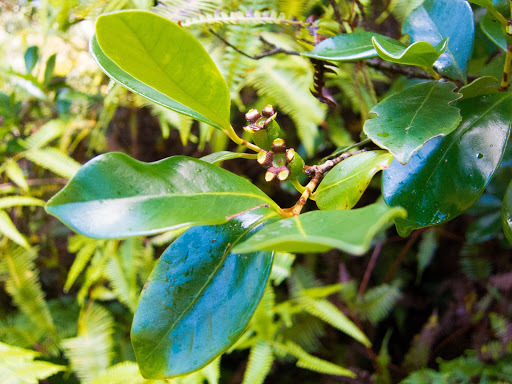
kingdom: Plantae
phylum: Tracheophyta
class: Magnoliopsida
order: Myrtales
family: Myrtaceae
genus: Psidium
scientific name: Psidium cattleianum
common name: Strawberry guava
